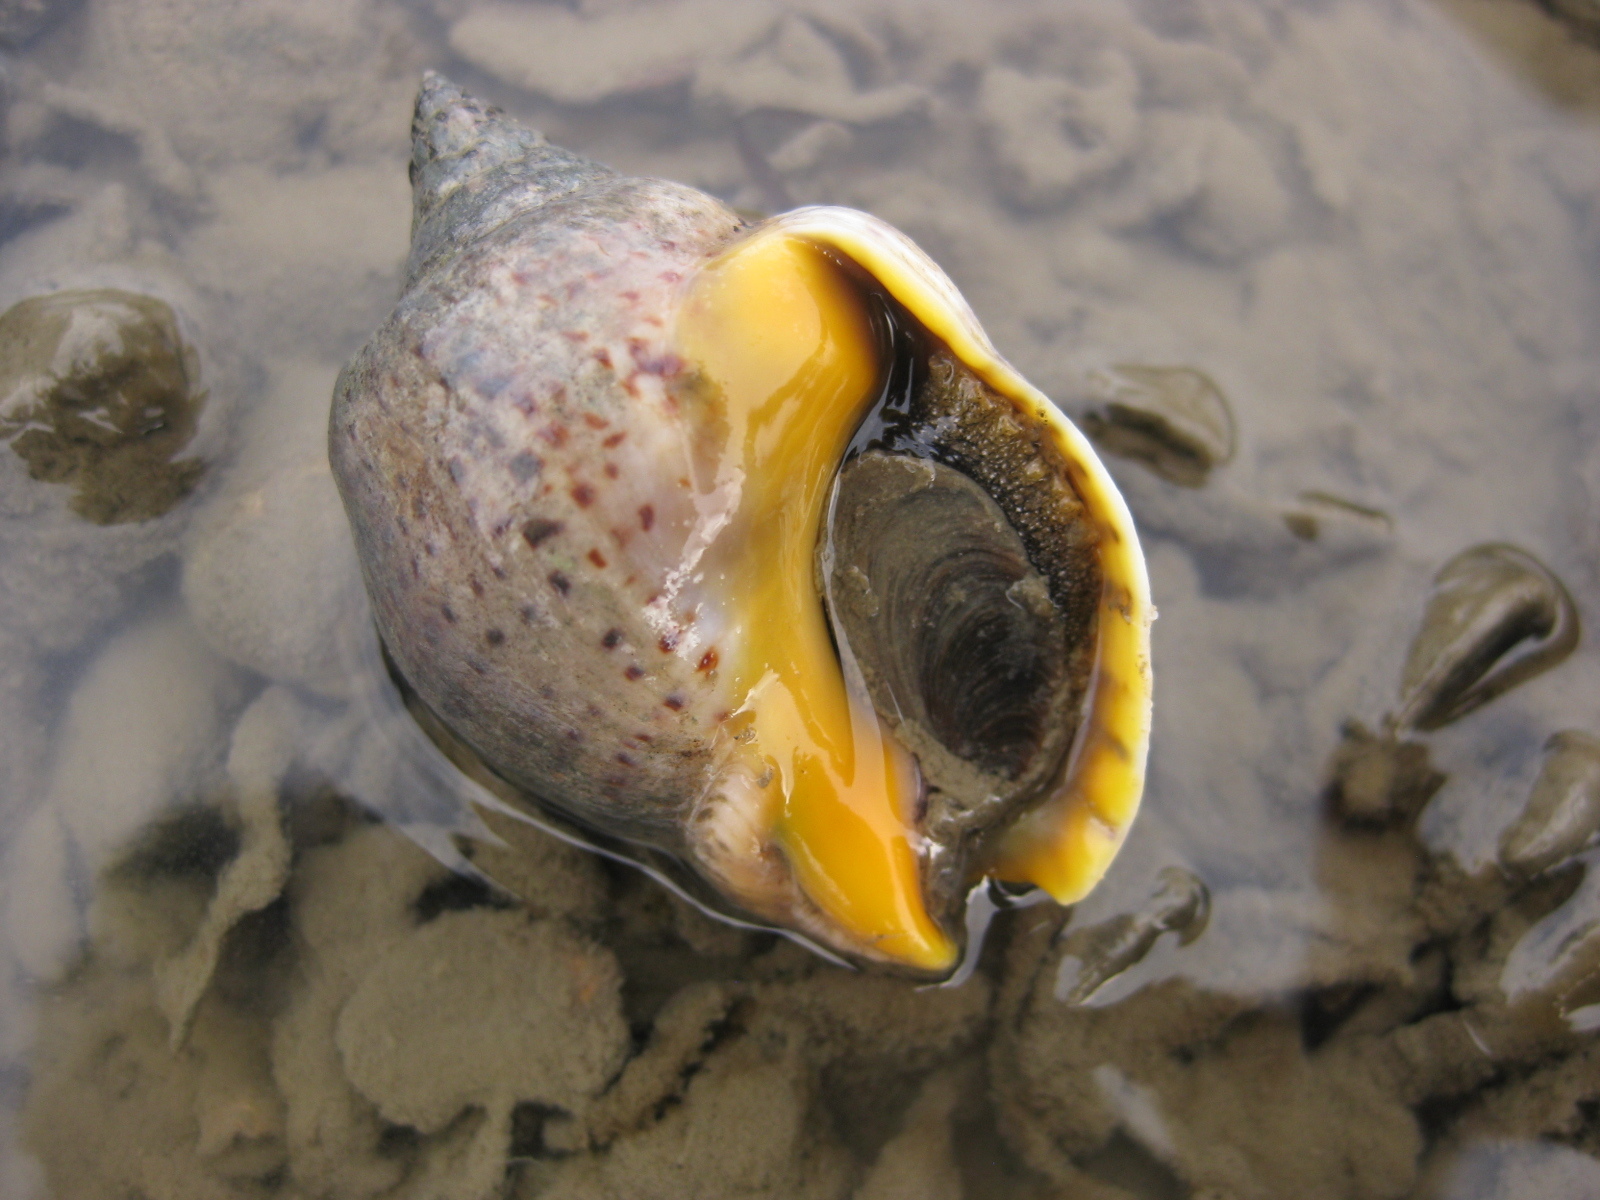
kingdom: Animalia
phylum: Mollusca
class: Gastropoda
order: Neogastropoda
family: Cominellidae
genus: Cominella
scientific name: Cominella adspersa
